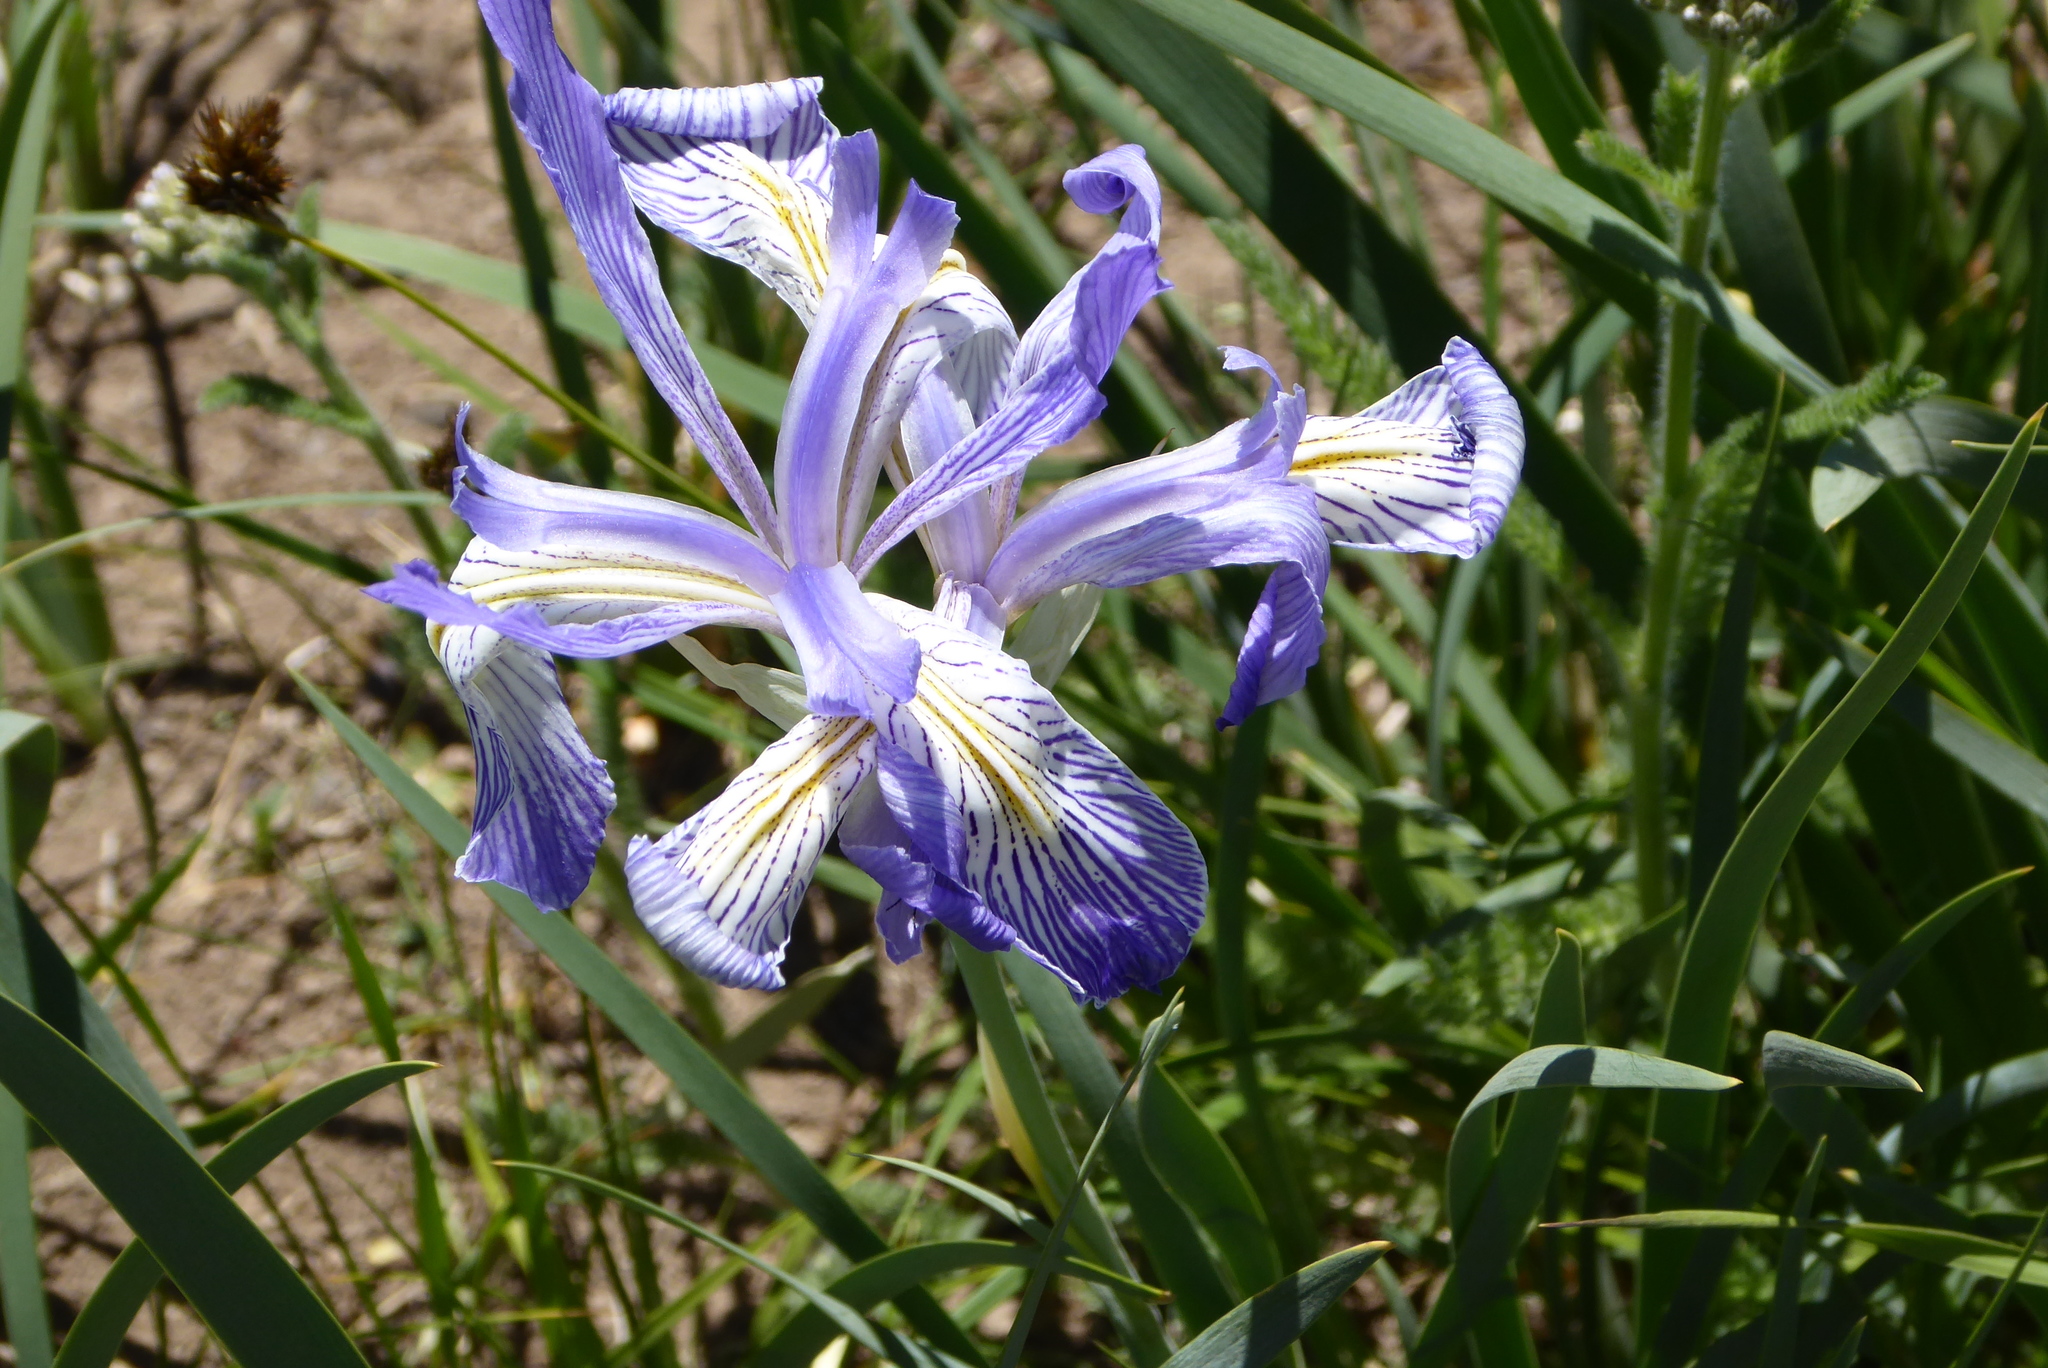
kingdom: Plantae
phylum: Tracheophyta
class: Liliopsida
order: Asparagales
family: Iridaceae
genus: Iris
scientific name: Iris missouriensis
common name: Rocky mountain iris
